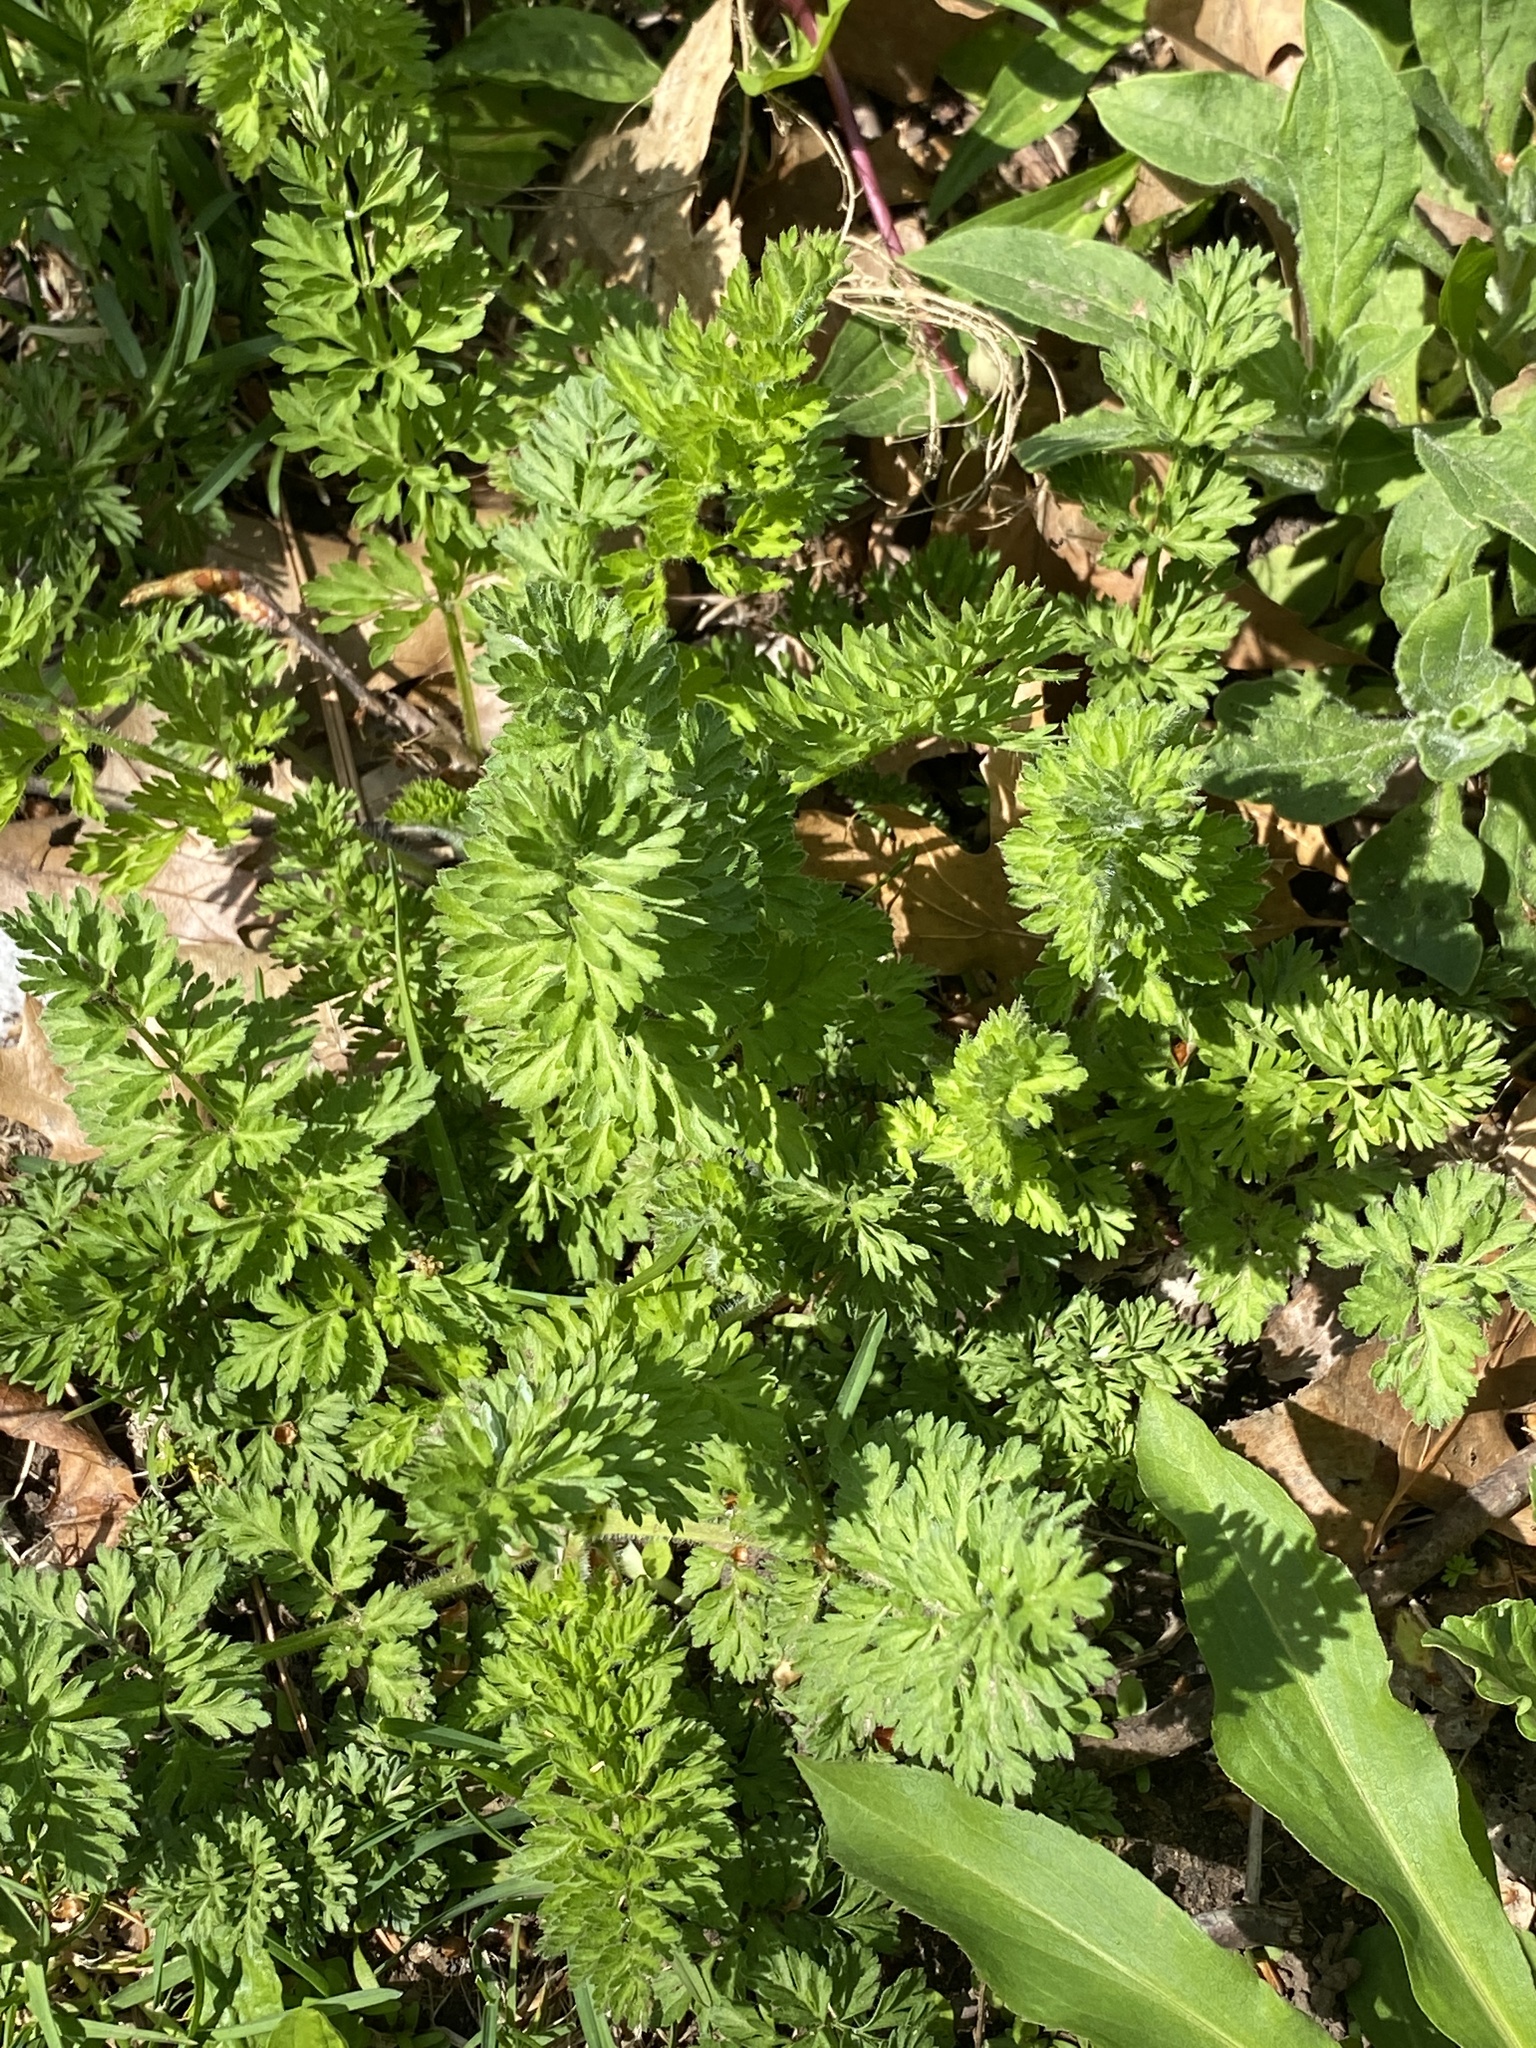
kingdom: Plantae
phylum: Tracheophyta
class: Magnoliopsida
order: Apiales
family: Apiaceae
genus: Daucus
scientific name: Daucus carota
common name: Wild carrot
